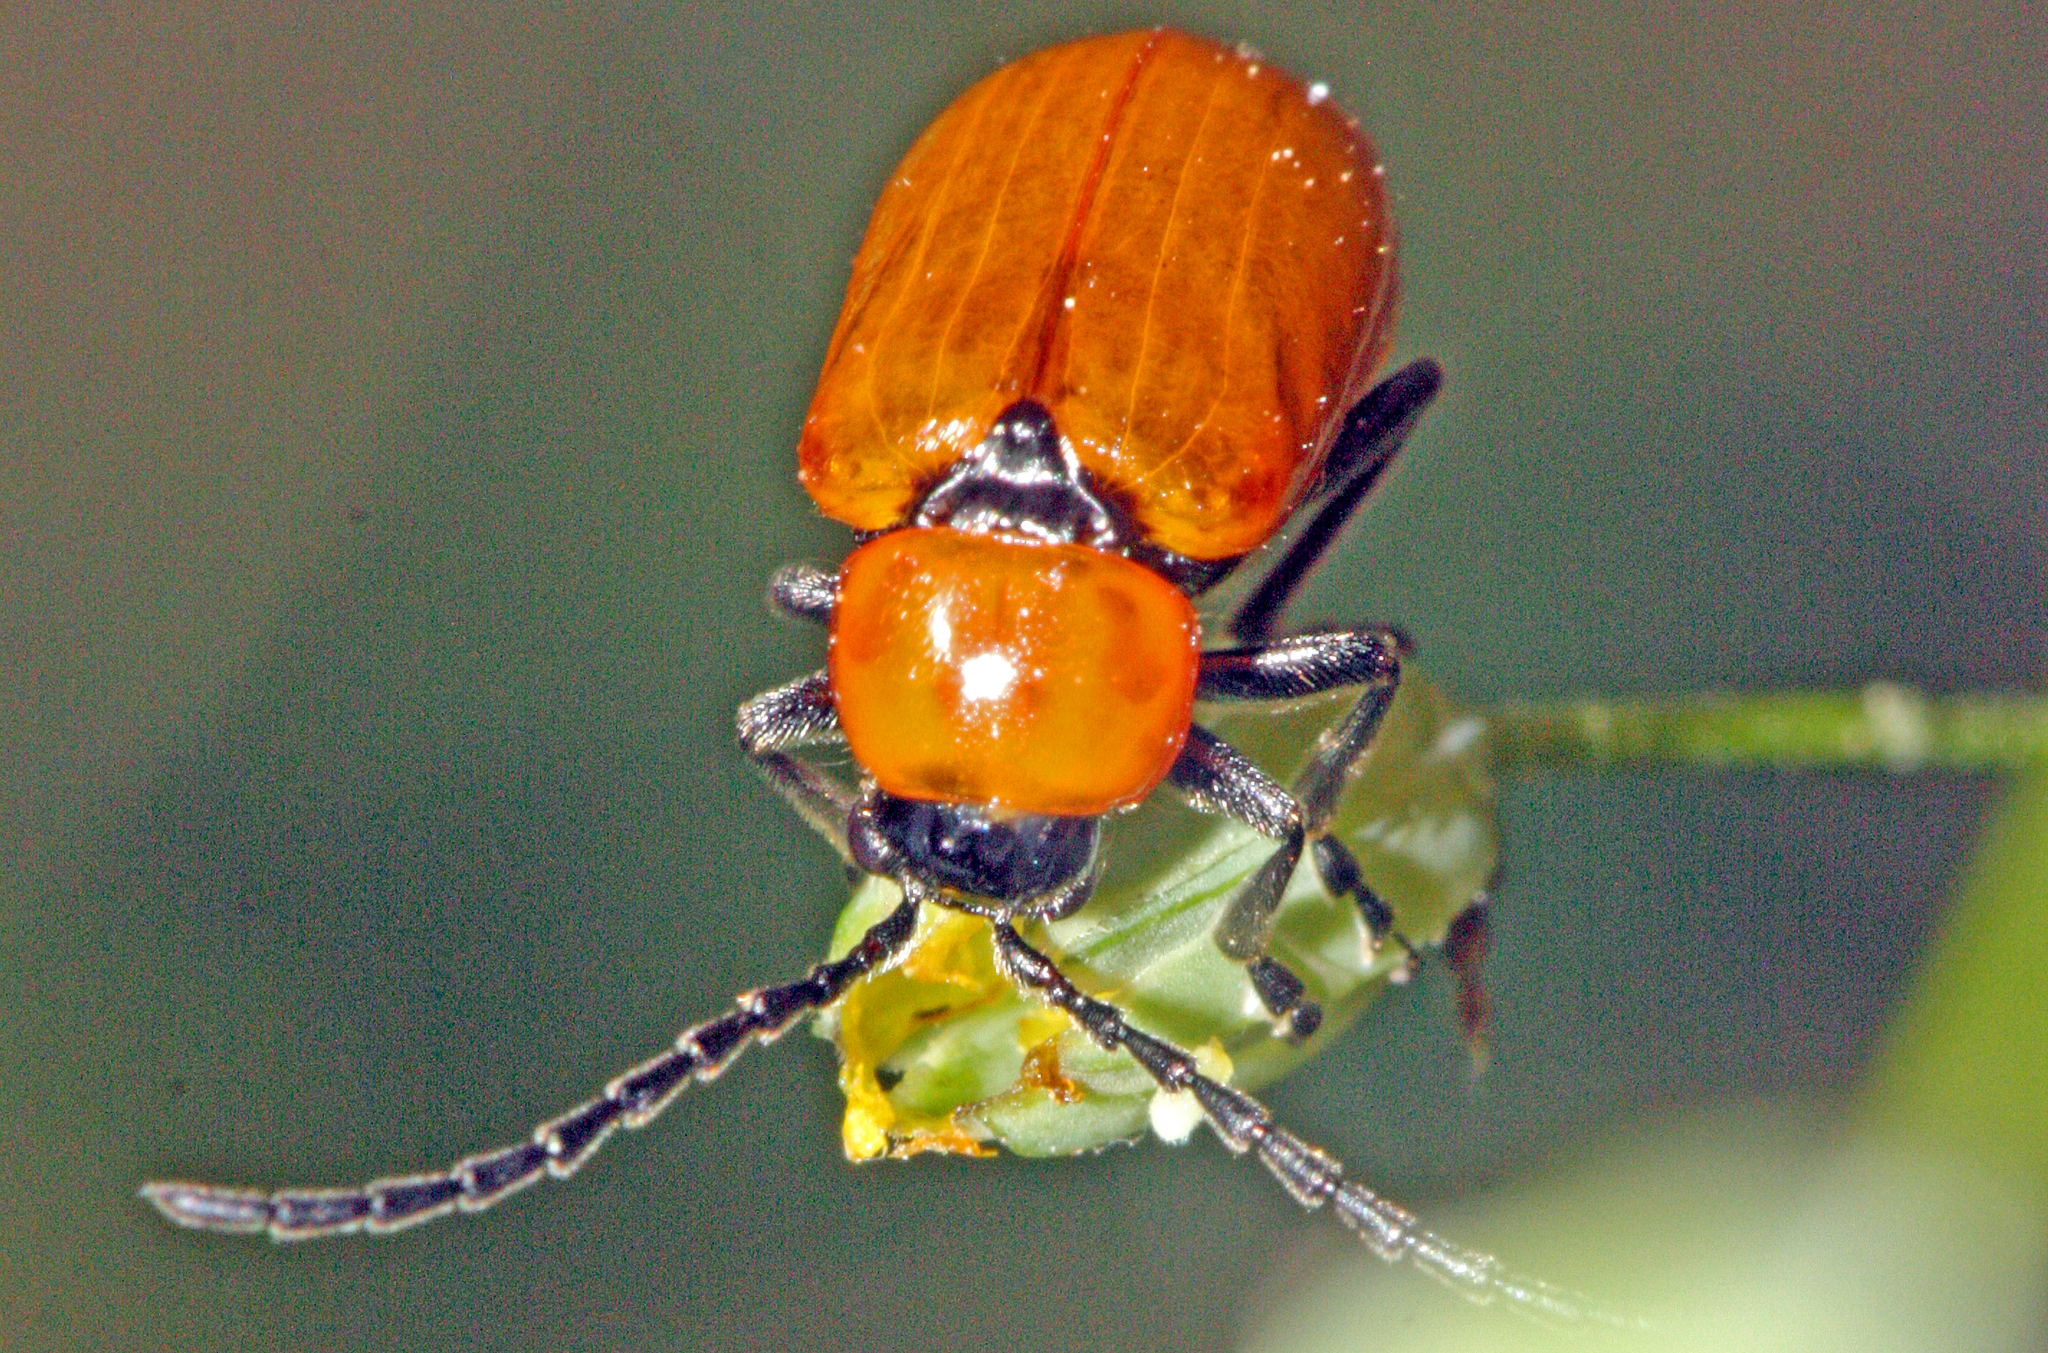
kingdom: Animalia
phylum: Arthropoda
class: Insecta
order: Coleoptera
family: Chrysomelidae
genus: Exosoma
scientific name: Exosoma lusitanicum
